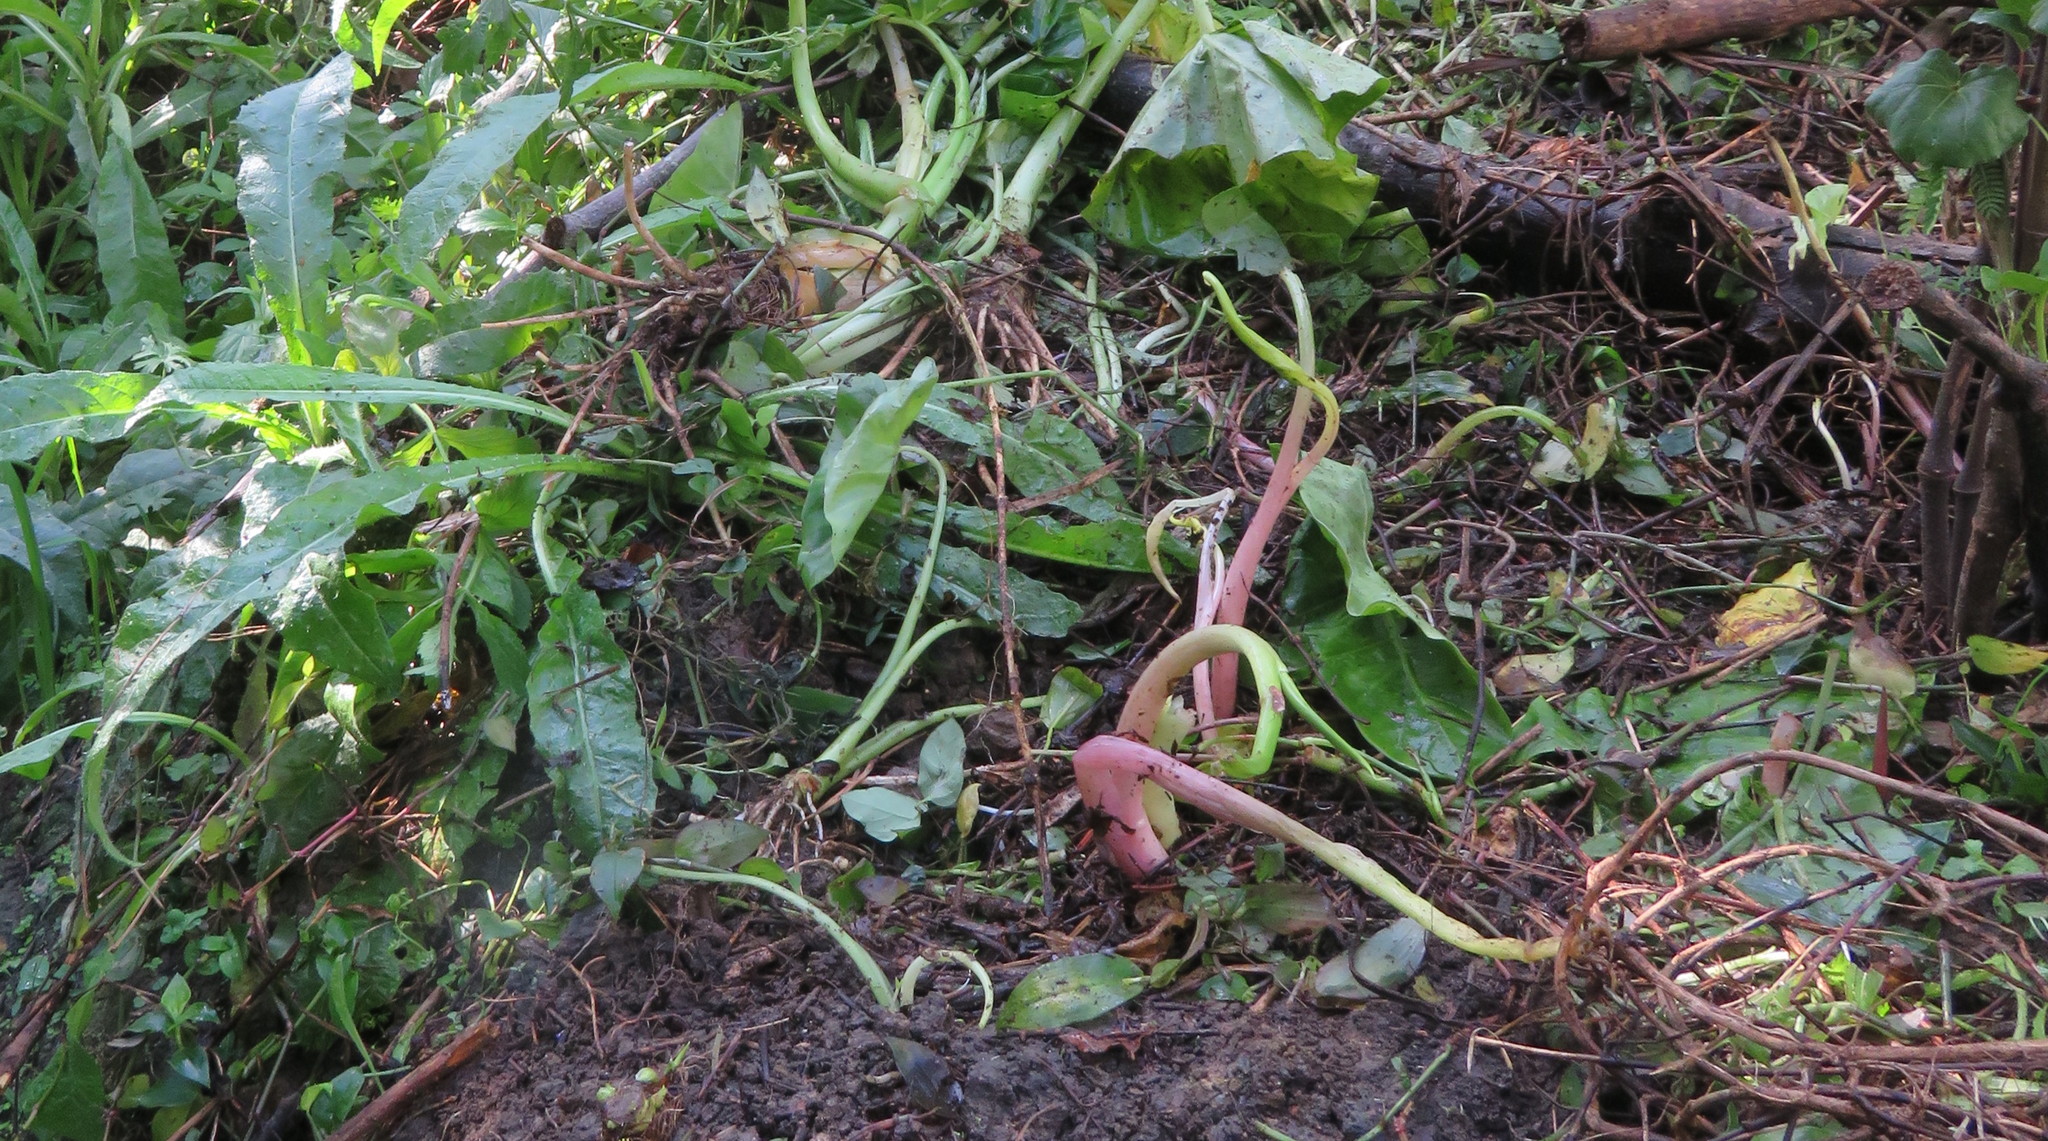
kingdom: Plantae
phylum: Tracheophyta
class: Liliopsida
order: Alismatales
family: Araceae
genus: Zantedeschia
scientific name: Zantedeschia aethiopica
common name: Altar-lily
